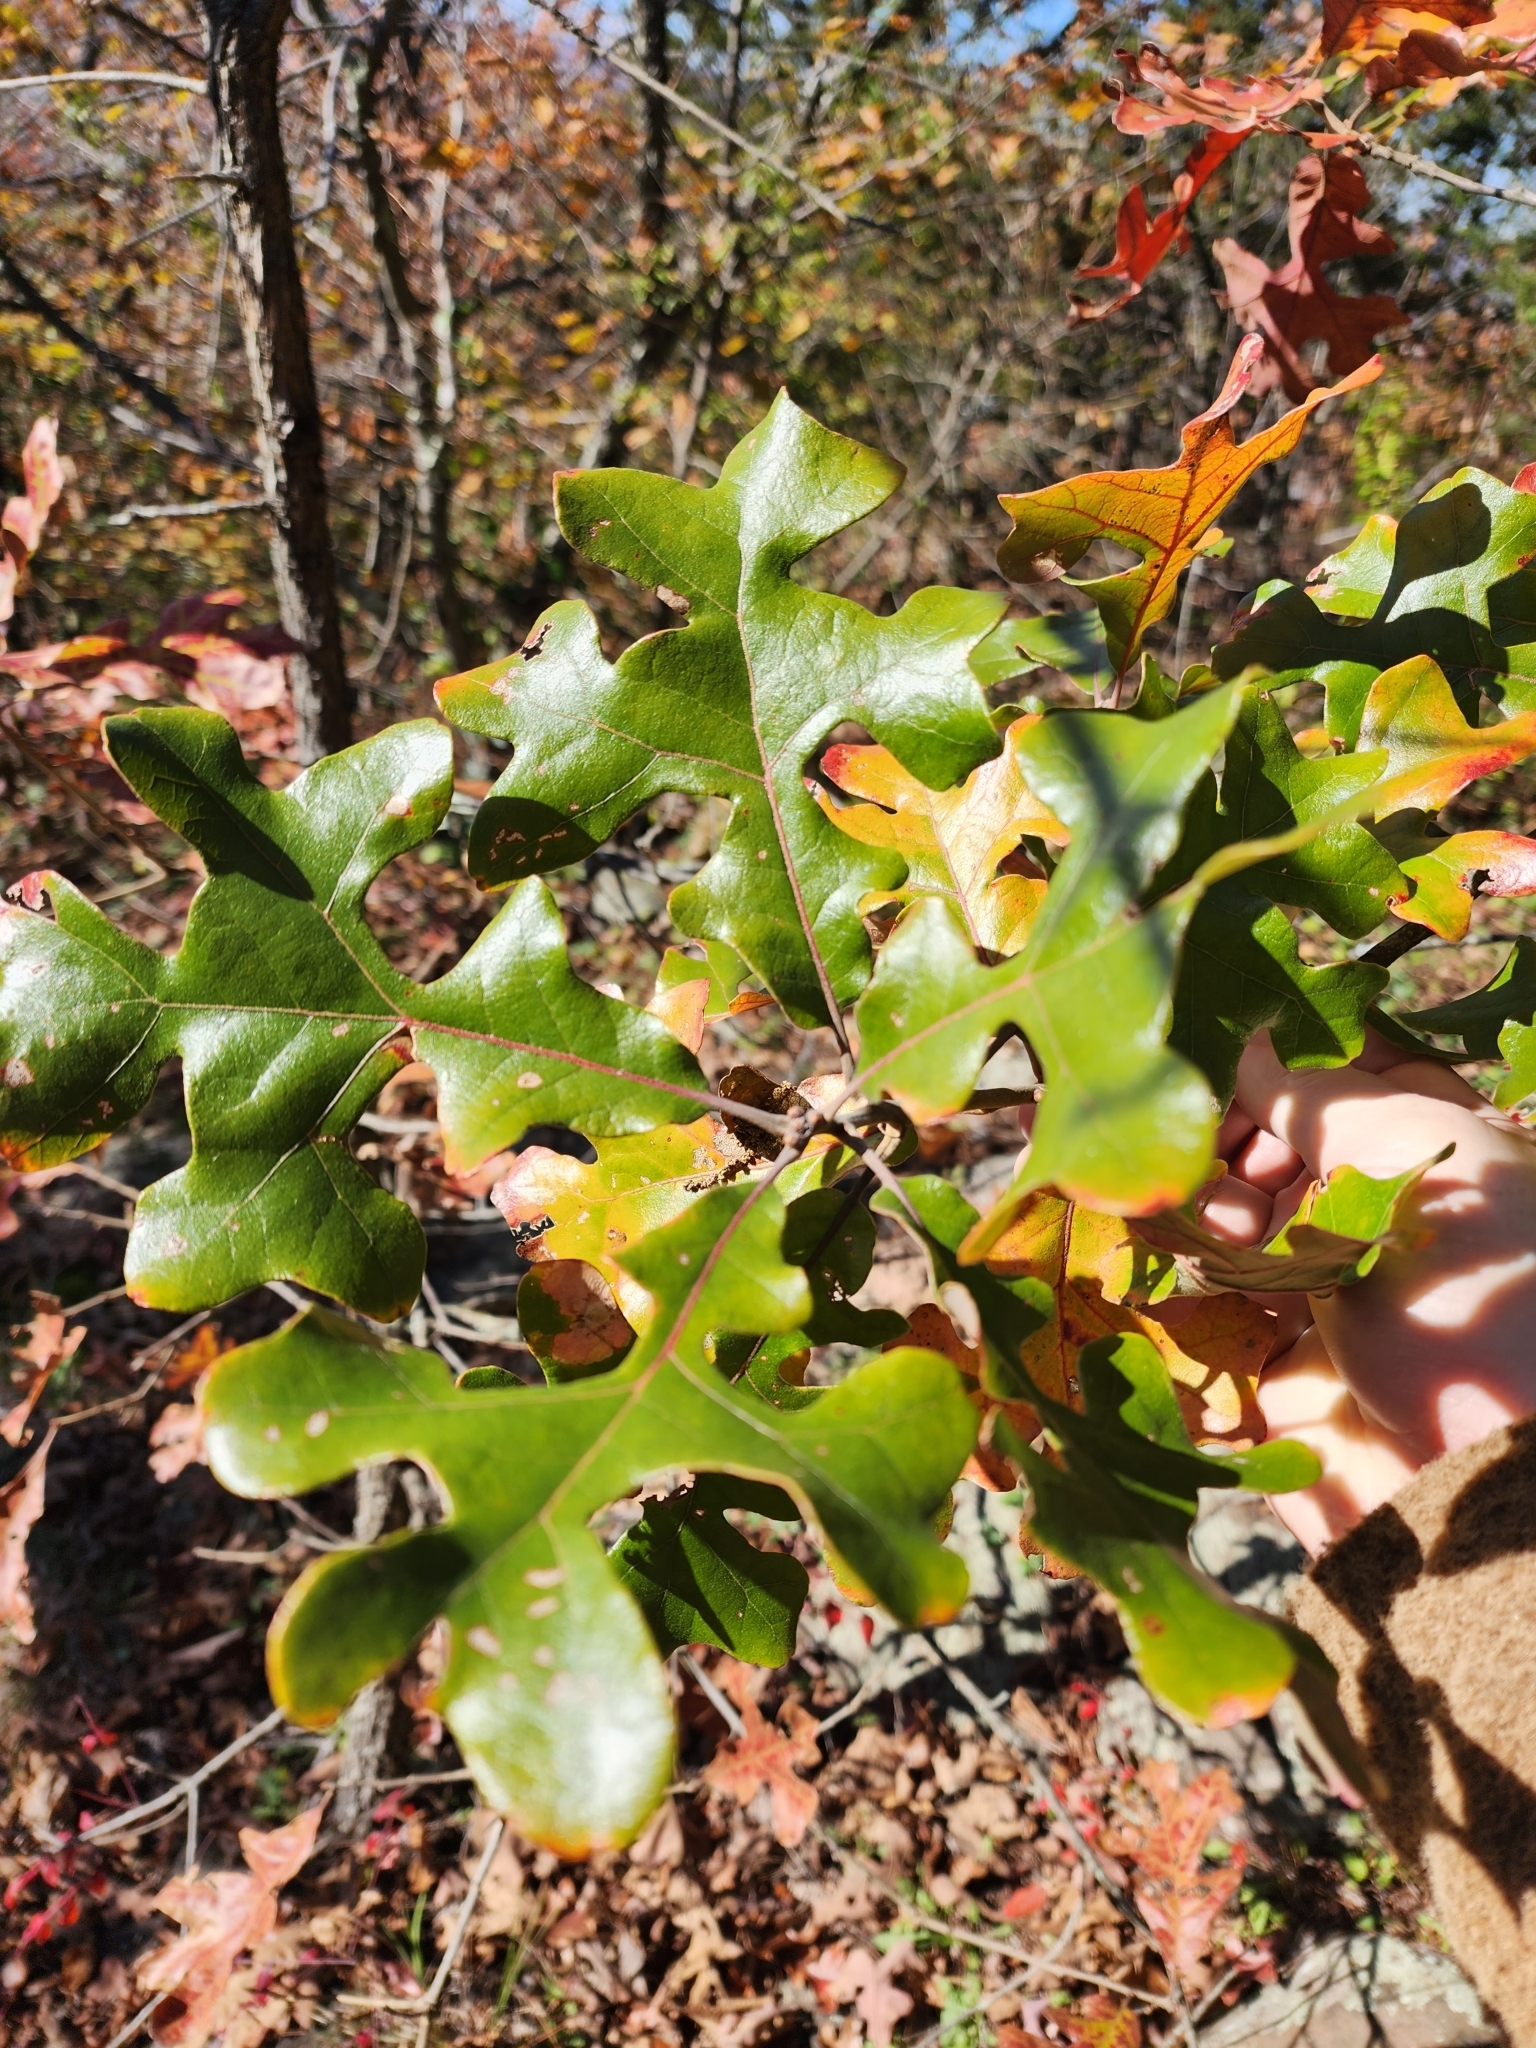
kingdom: Plantae
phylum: Tracheophyta
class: Magnoliopsida
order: Fagales
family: Fagaceae
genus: Quercus
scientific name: Quercus stellata
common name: Post oak
